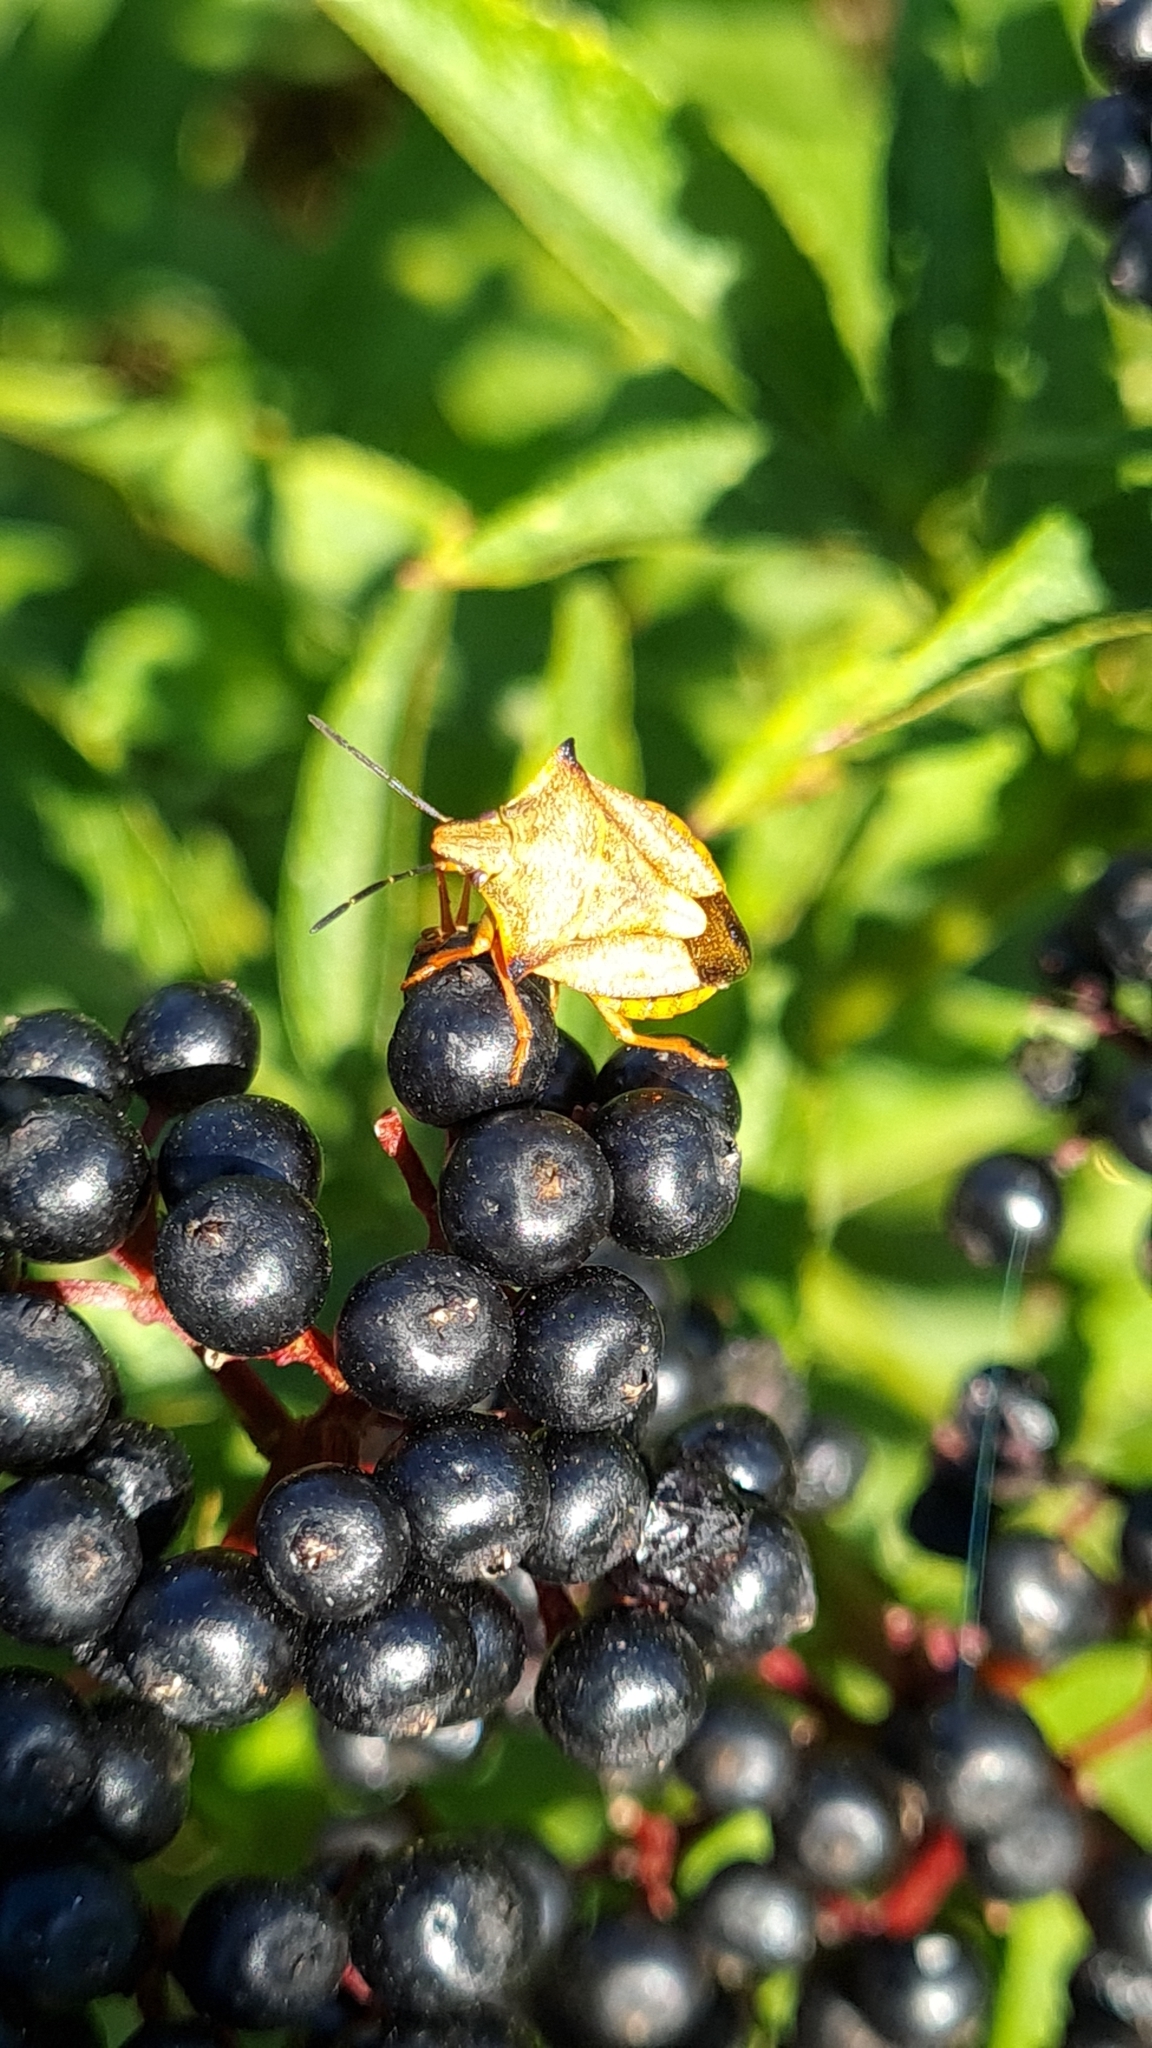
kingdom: Animalia
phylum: Arthropoda
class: Insecta
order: Hemiptera
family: Pentatomidae
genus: Carpocoris
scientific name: Carpocoris mediterraneus
